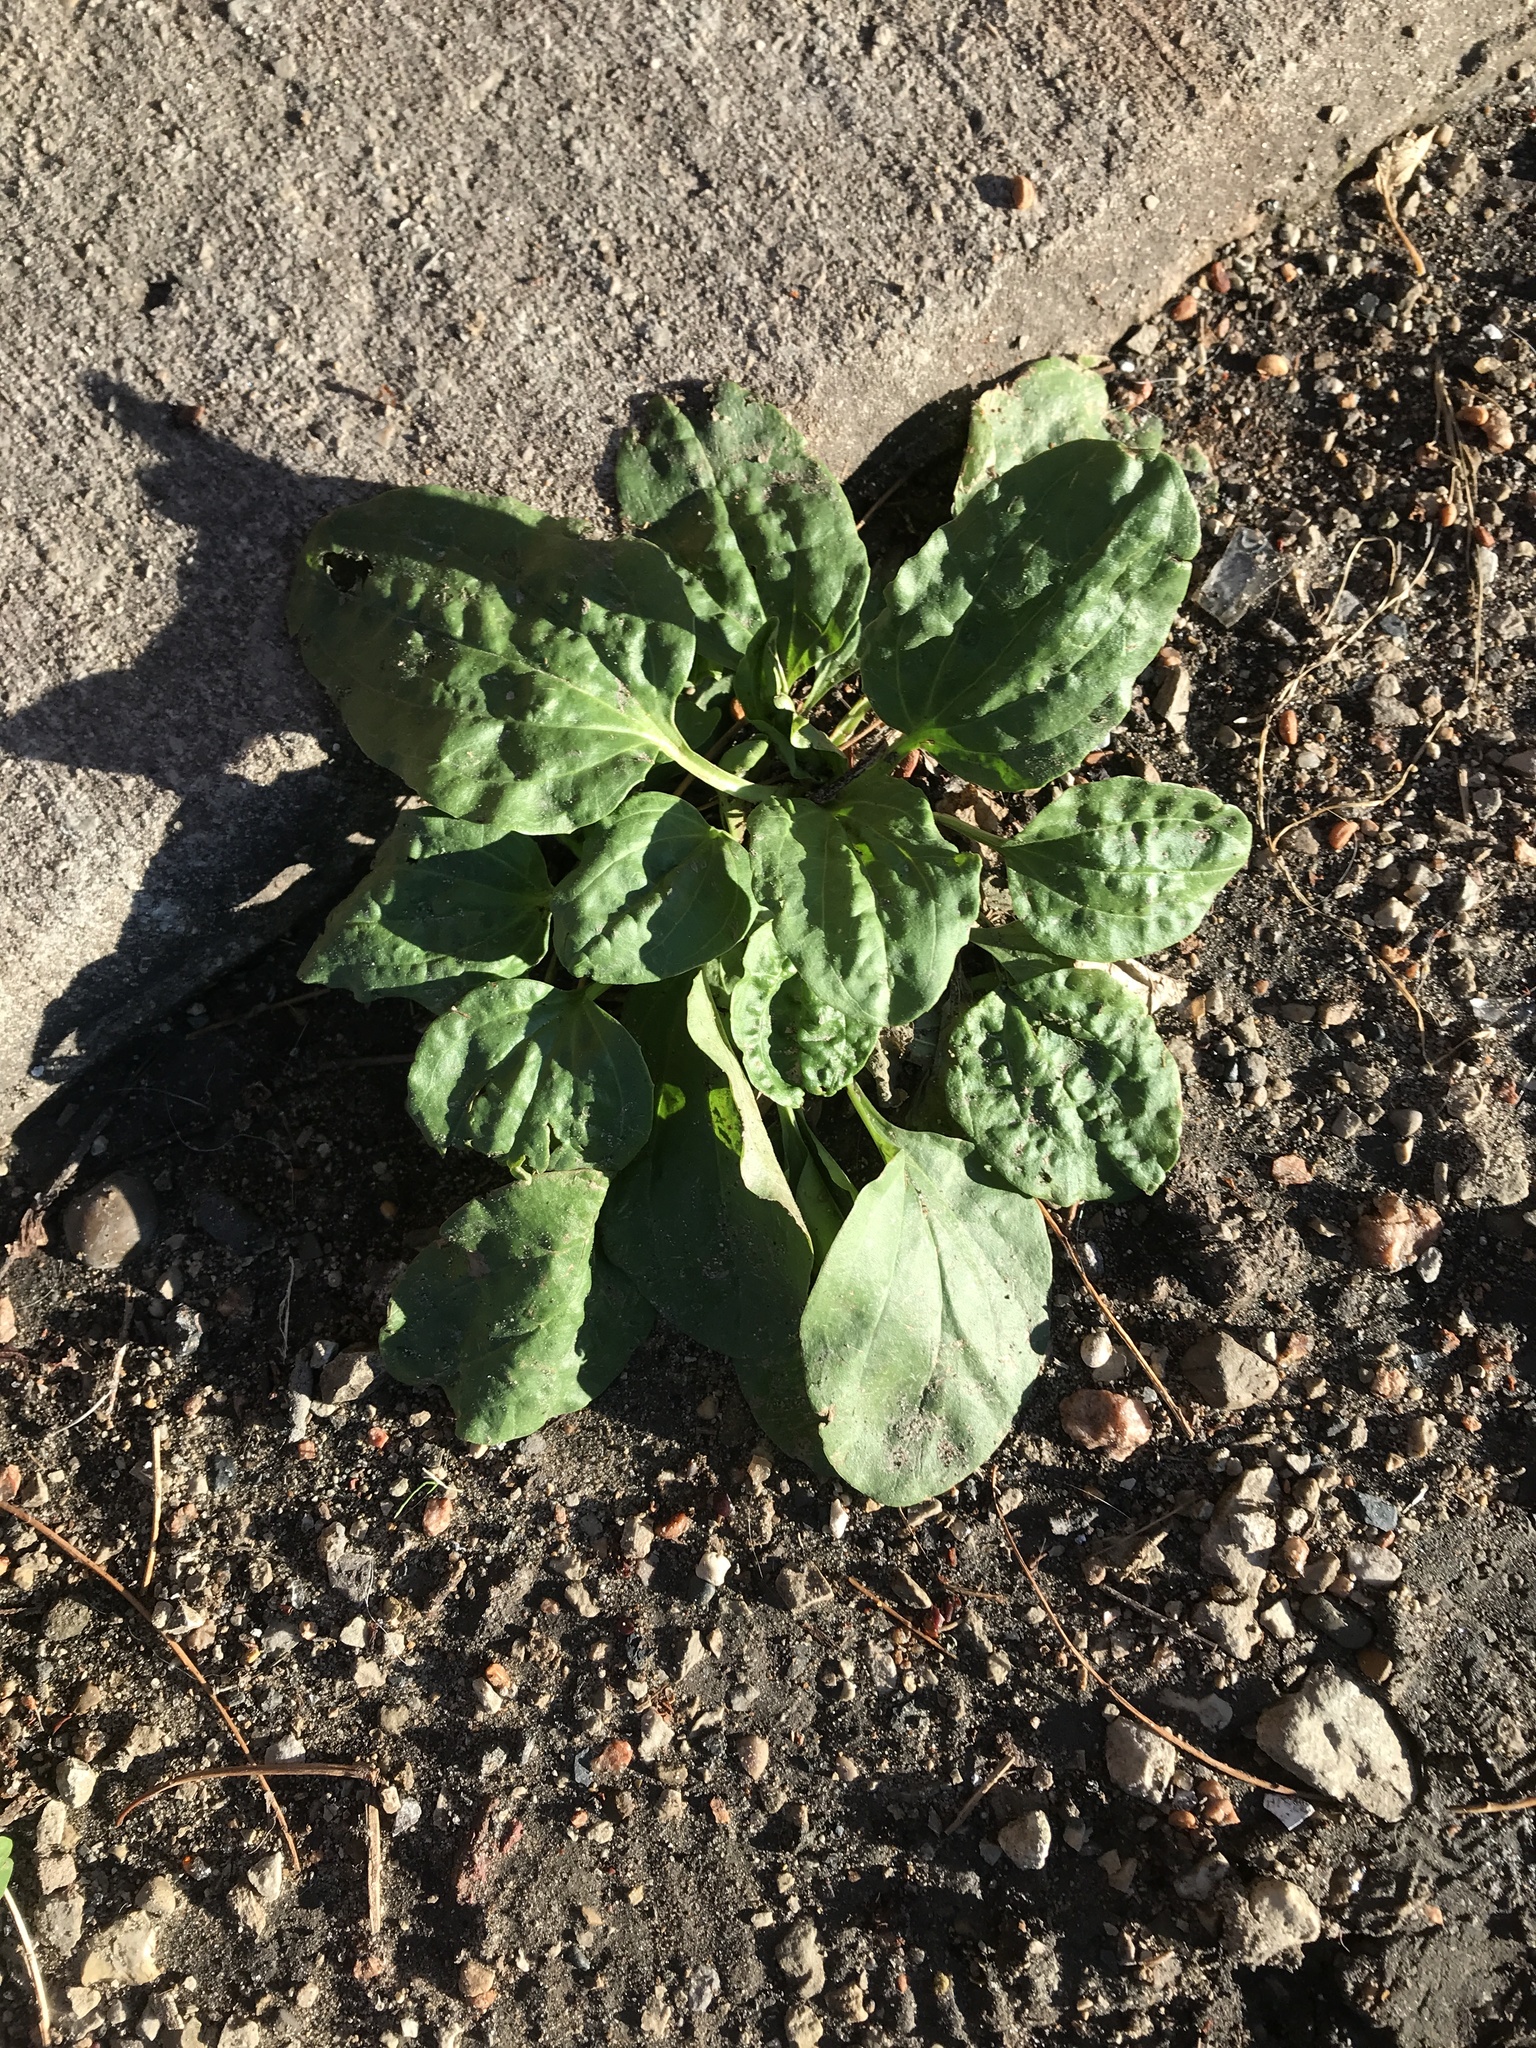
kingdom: Plantae
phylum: Tracheophyta
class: Magnoliopsida
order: Lamiales
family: Plantaginaceae
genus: Plantago
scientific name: Plantago major
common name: Common plantain
